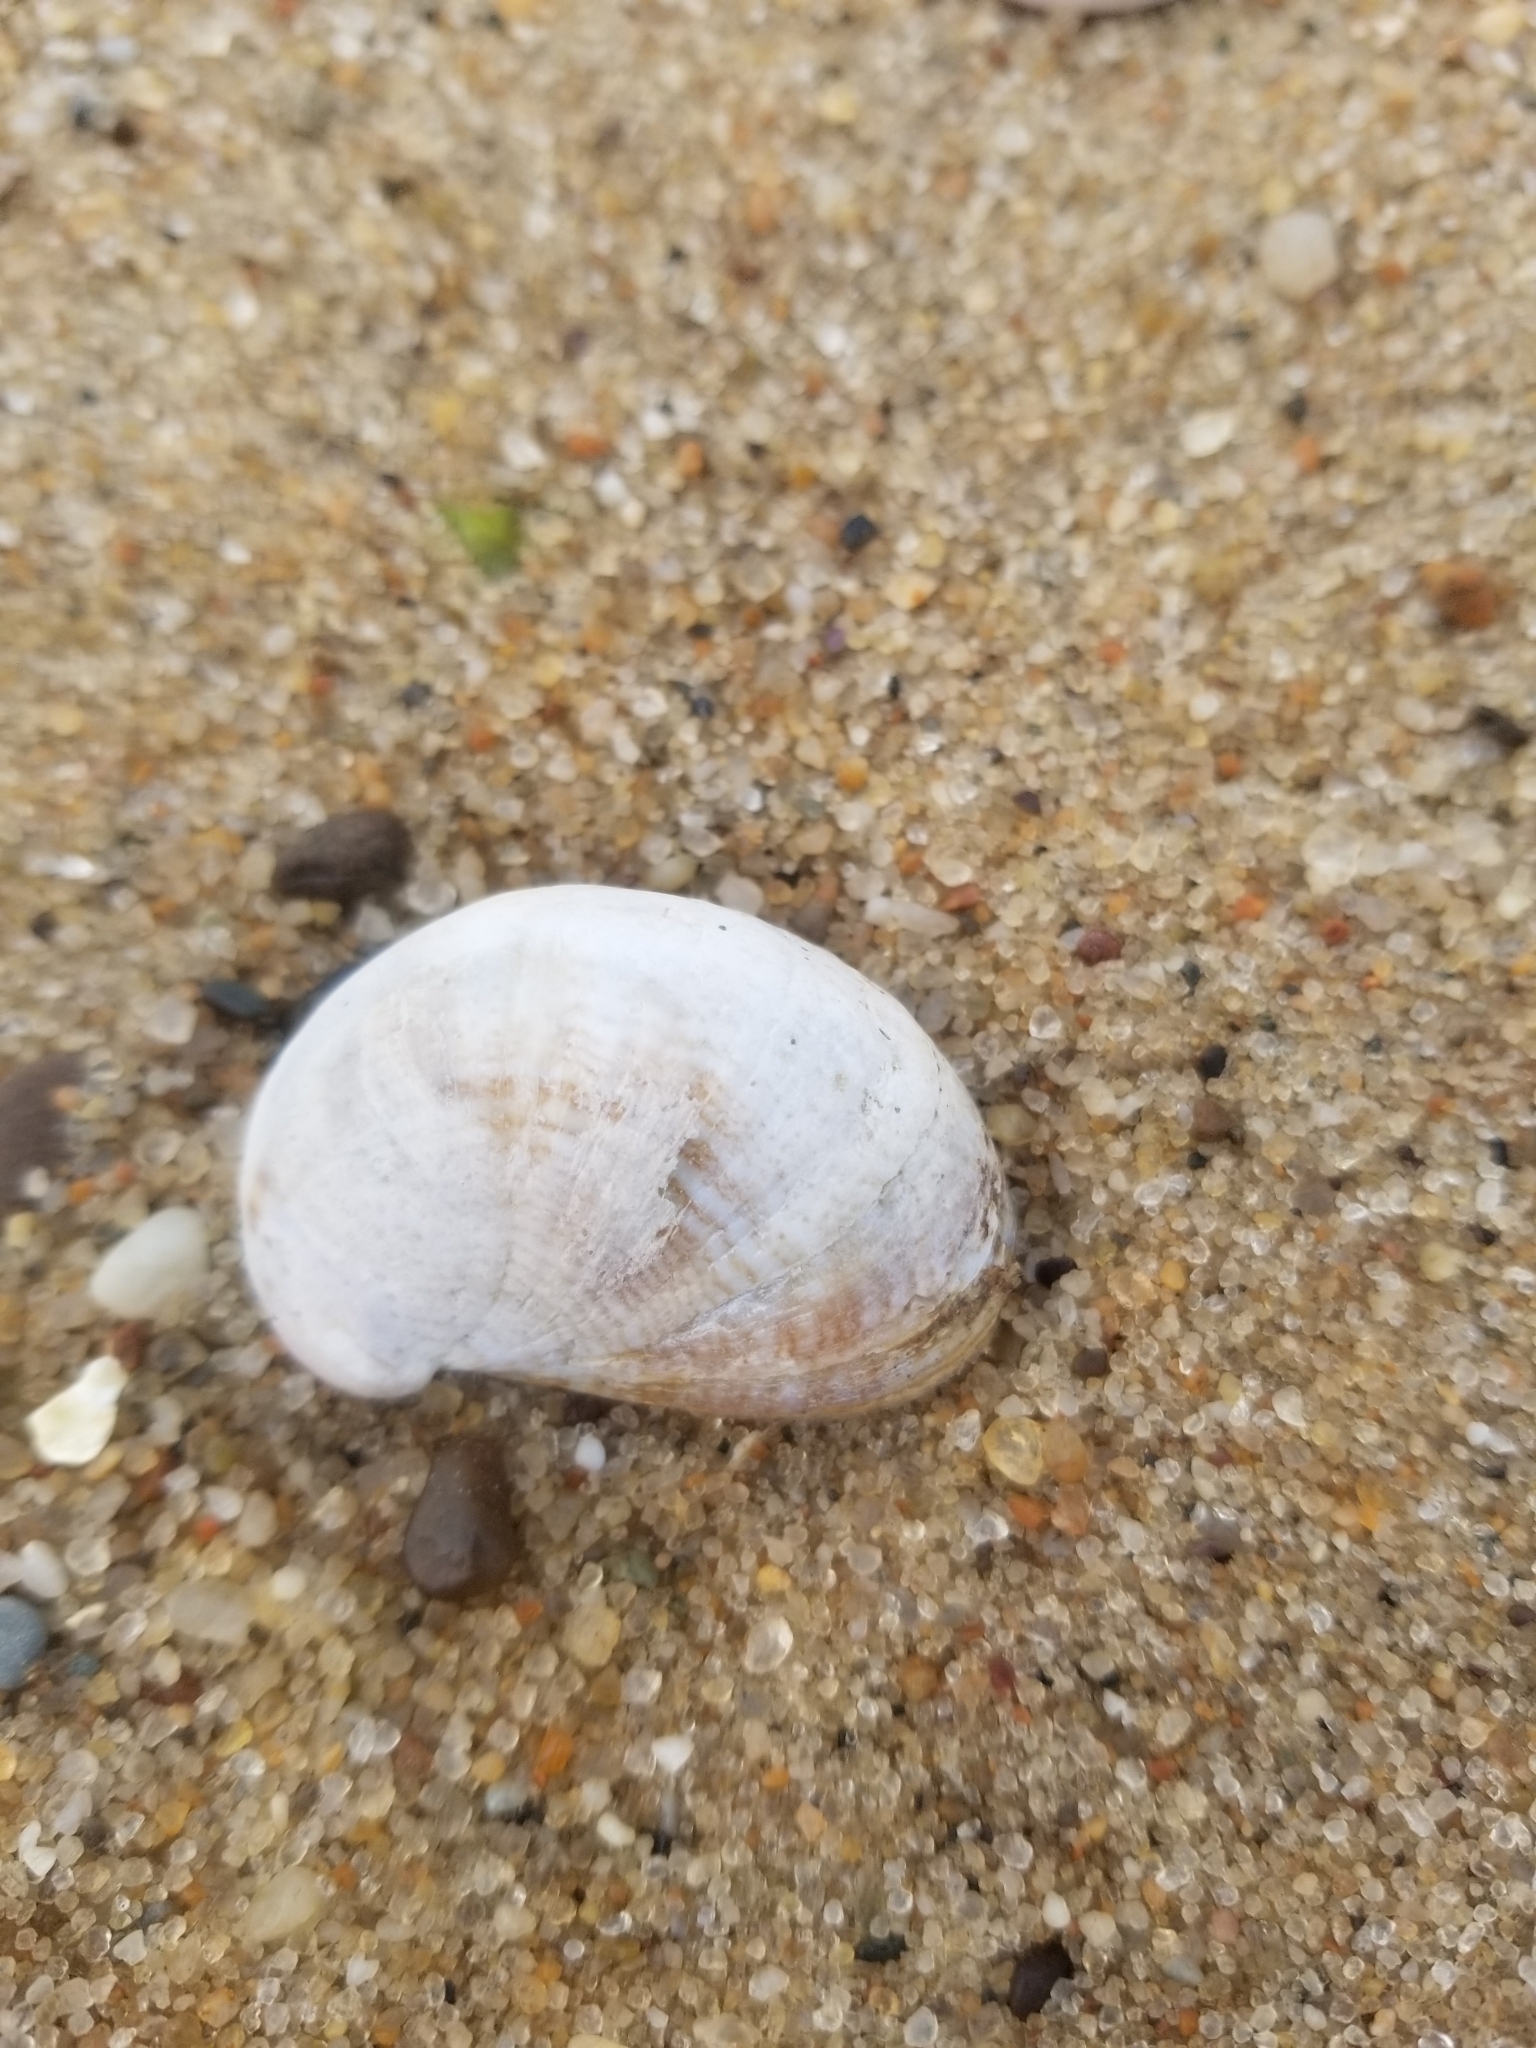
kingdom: Animalia
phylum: Mollusca
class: Gastropoda
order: Littorinimorpha
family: Calyptraeidae
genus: Crepidula
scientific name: Crepidula fornicata
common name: Slipper limpet
